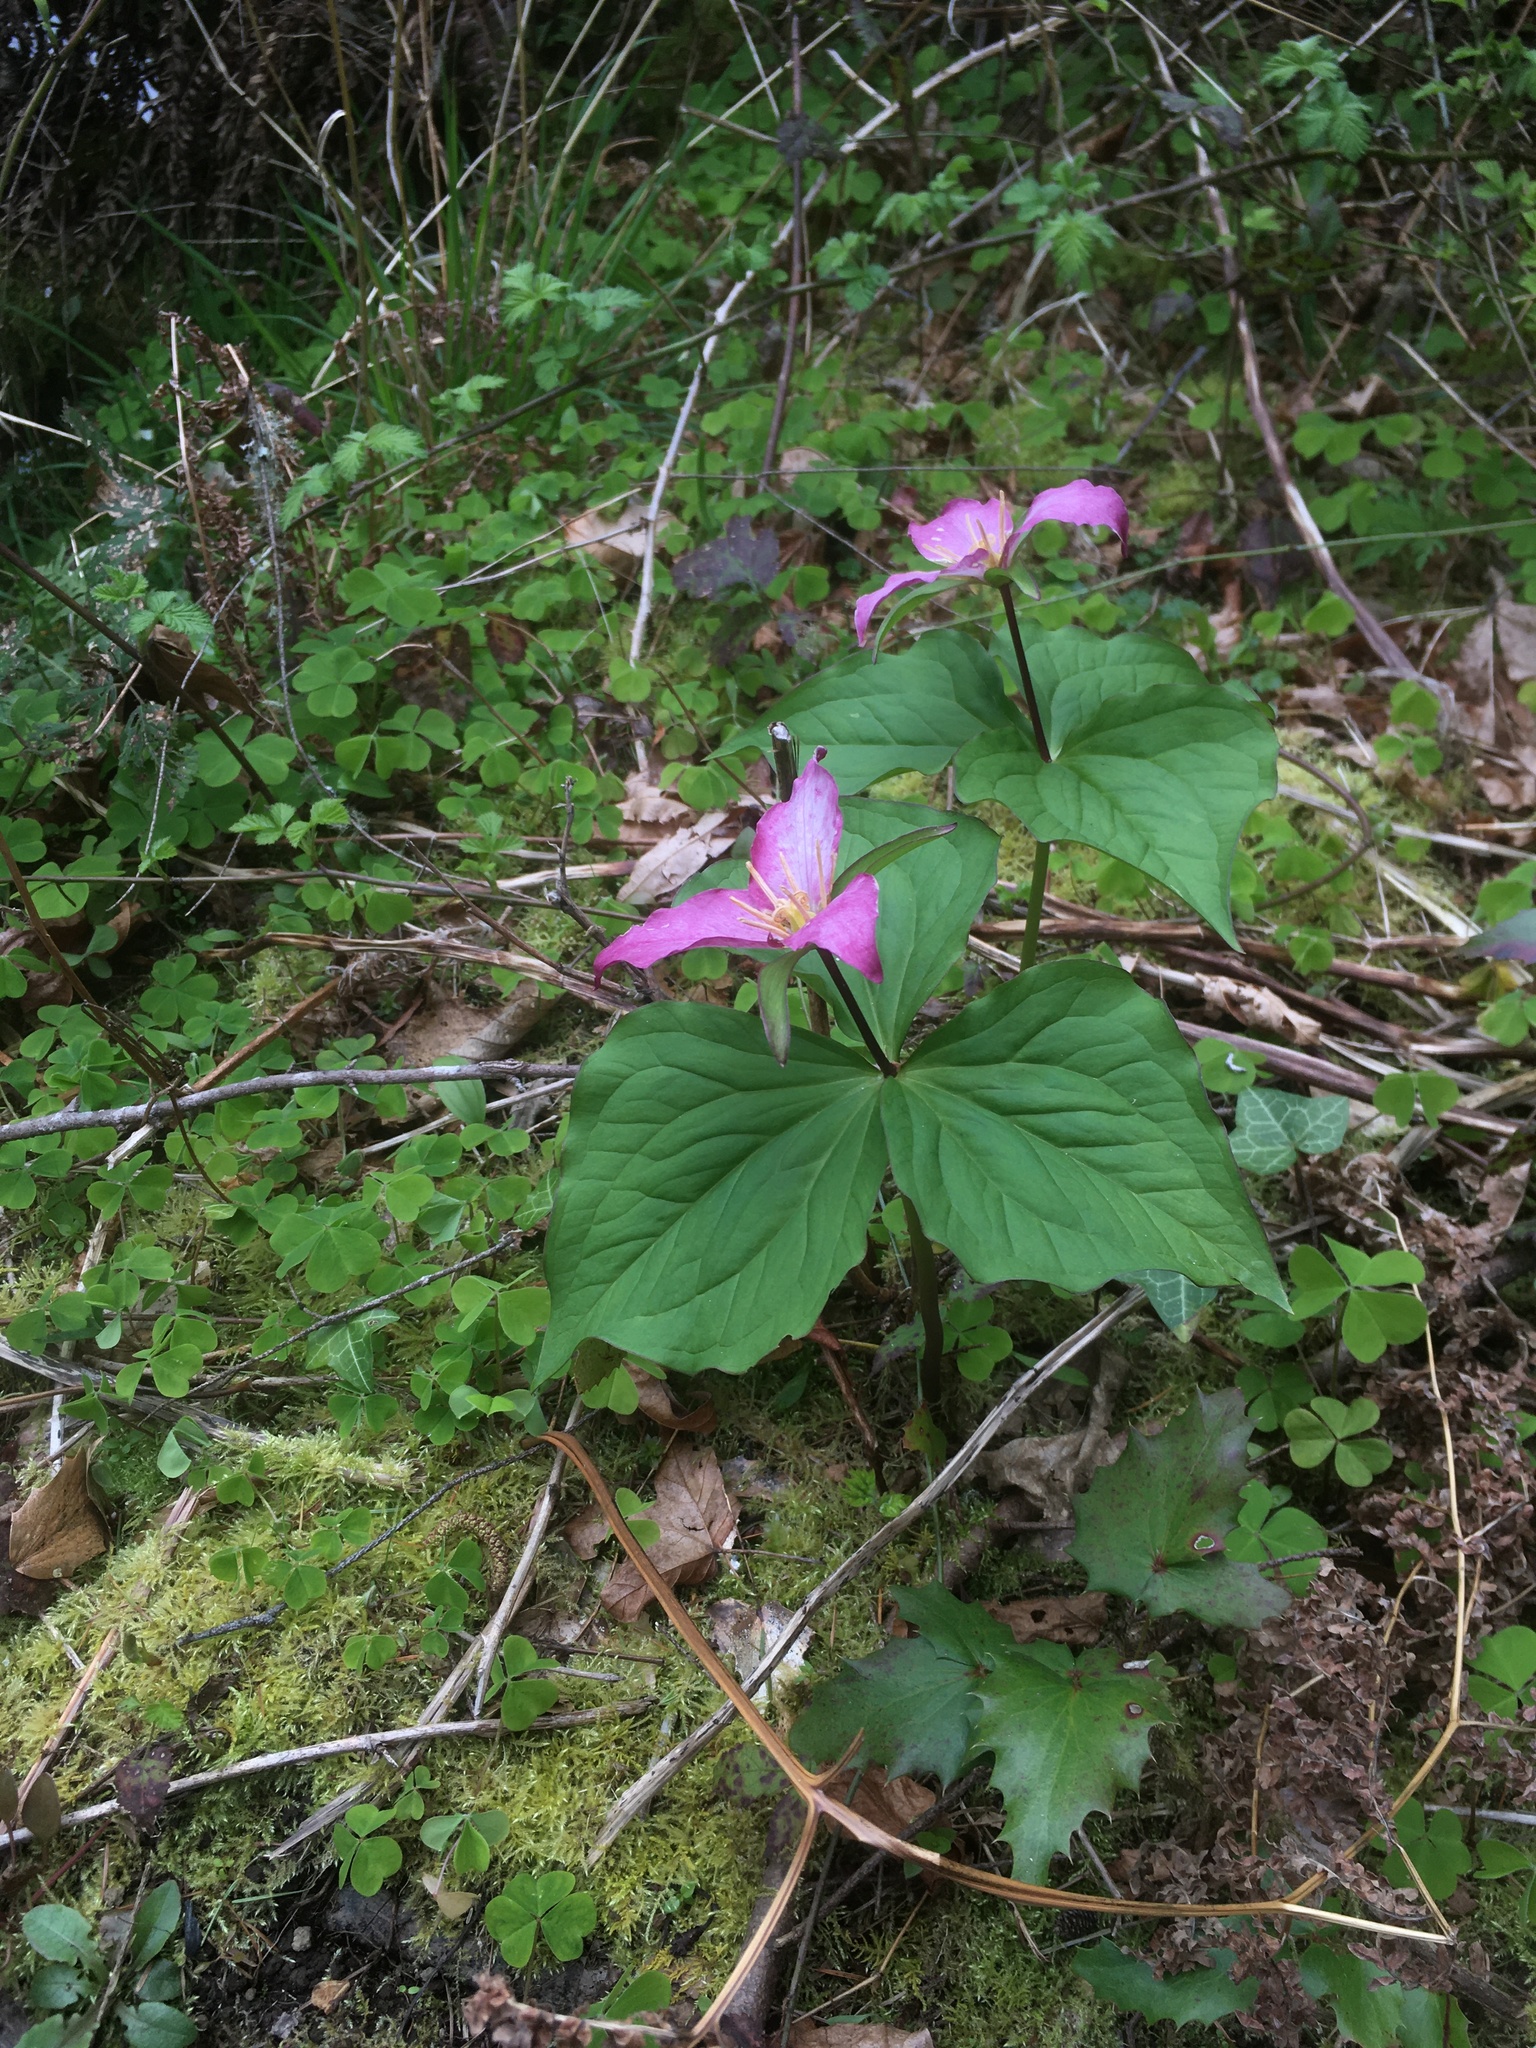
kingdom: Plantae
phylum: Tracheophyta
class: Liliopsida
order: Liliales
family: Melanthiaceae
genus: Trillium
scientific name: Trillium ovatum
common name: Pacific trillium
